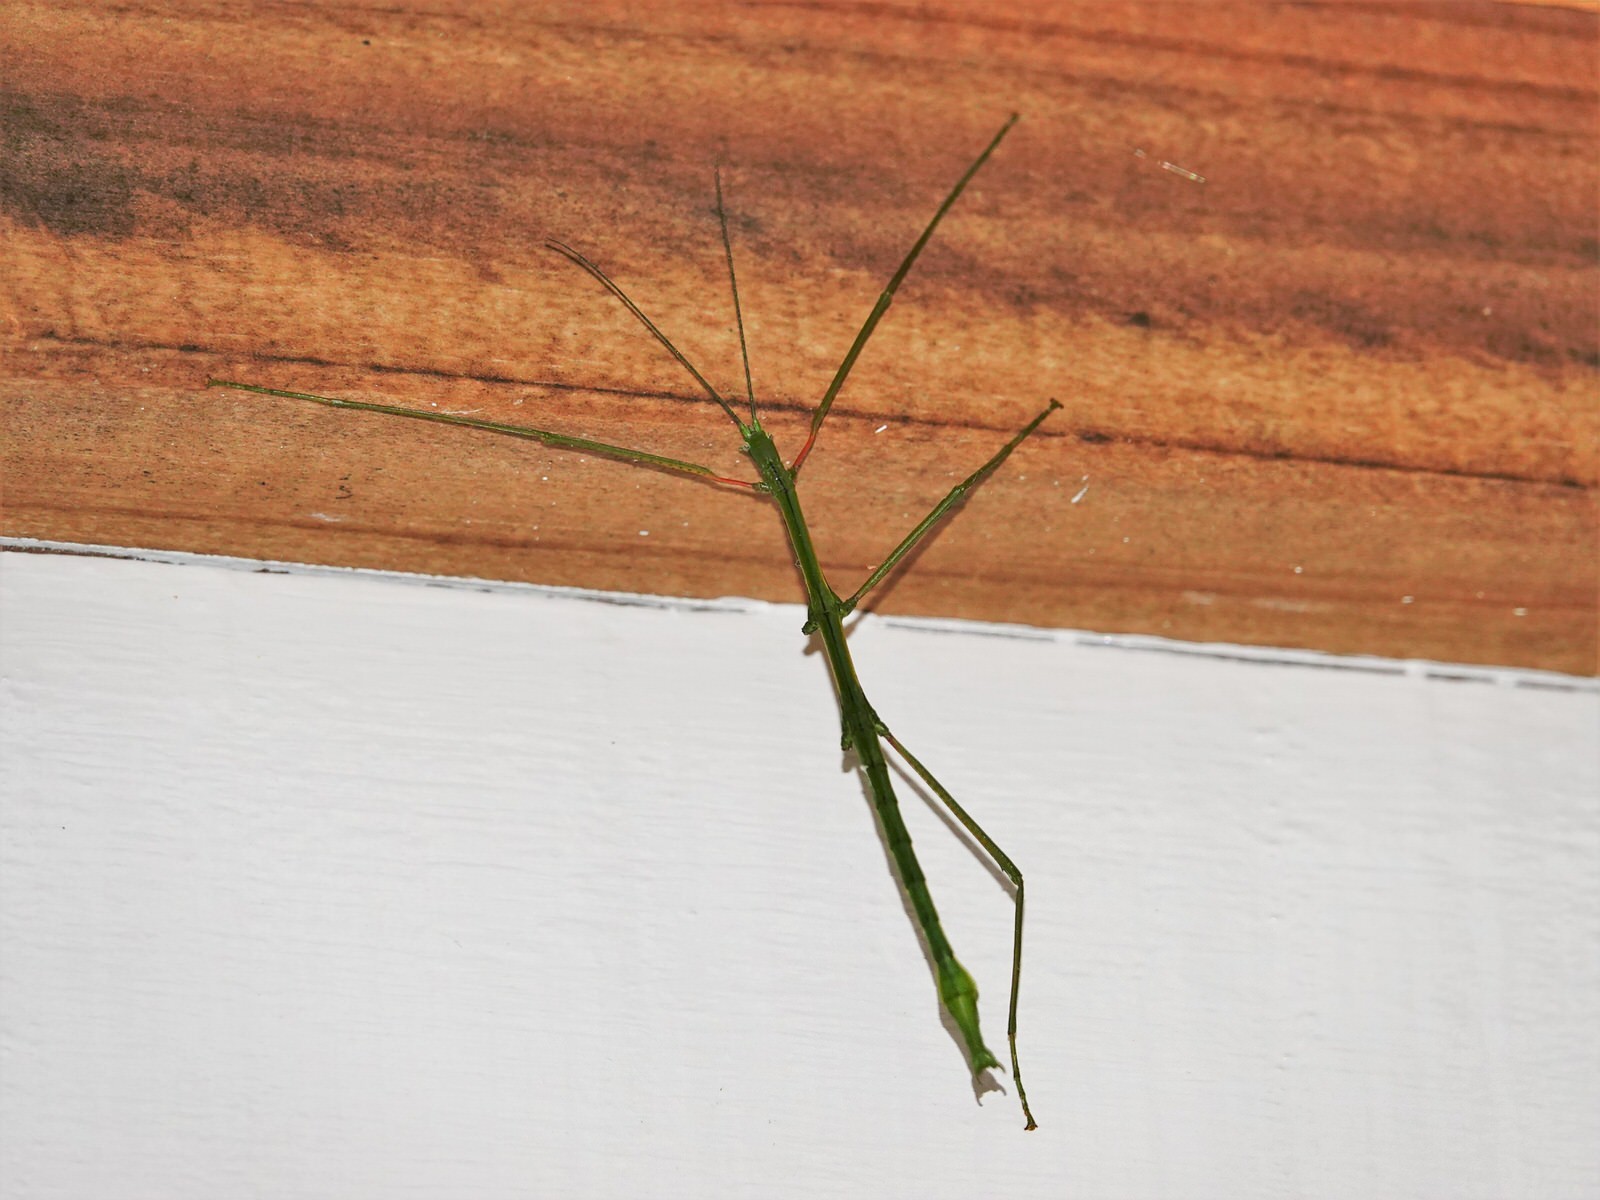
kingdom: Animalia
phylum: Arthropoda
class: Insecta
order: Phasmida
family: Phasmatidae
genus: Clitarchus
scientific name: Clitarchus hookeri
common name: Smooth stick insect
